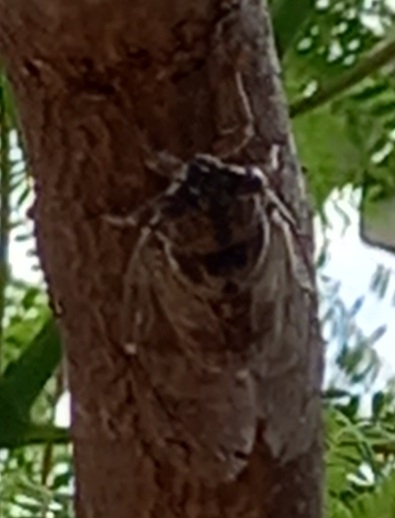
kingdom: Animalia
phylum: Arthropoda
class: Insecta
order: Hemiptera
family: Cicadidae
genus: Cicada
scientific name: Cicada barbara
